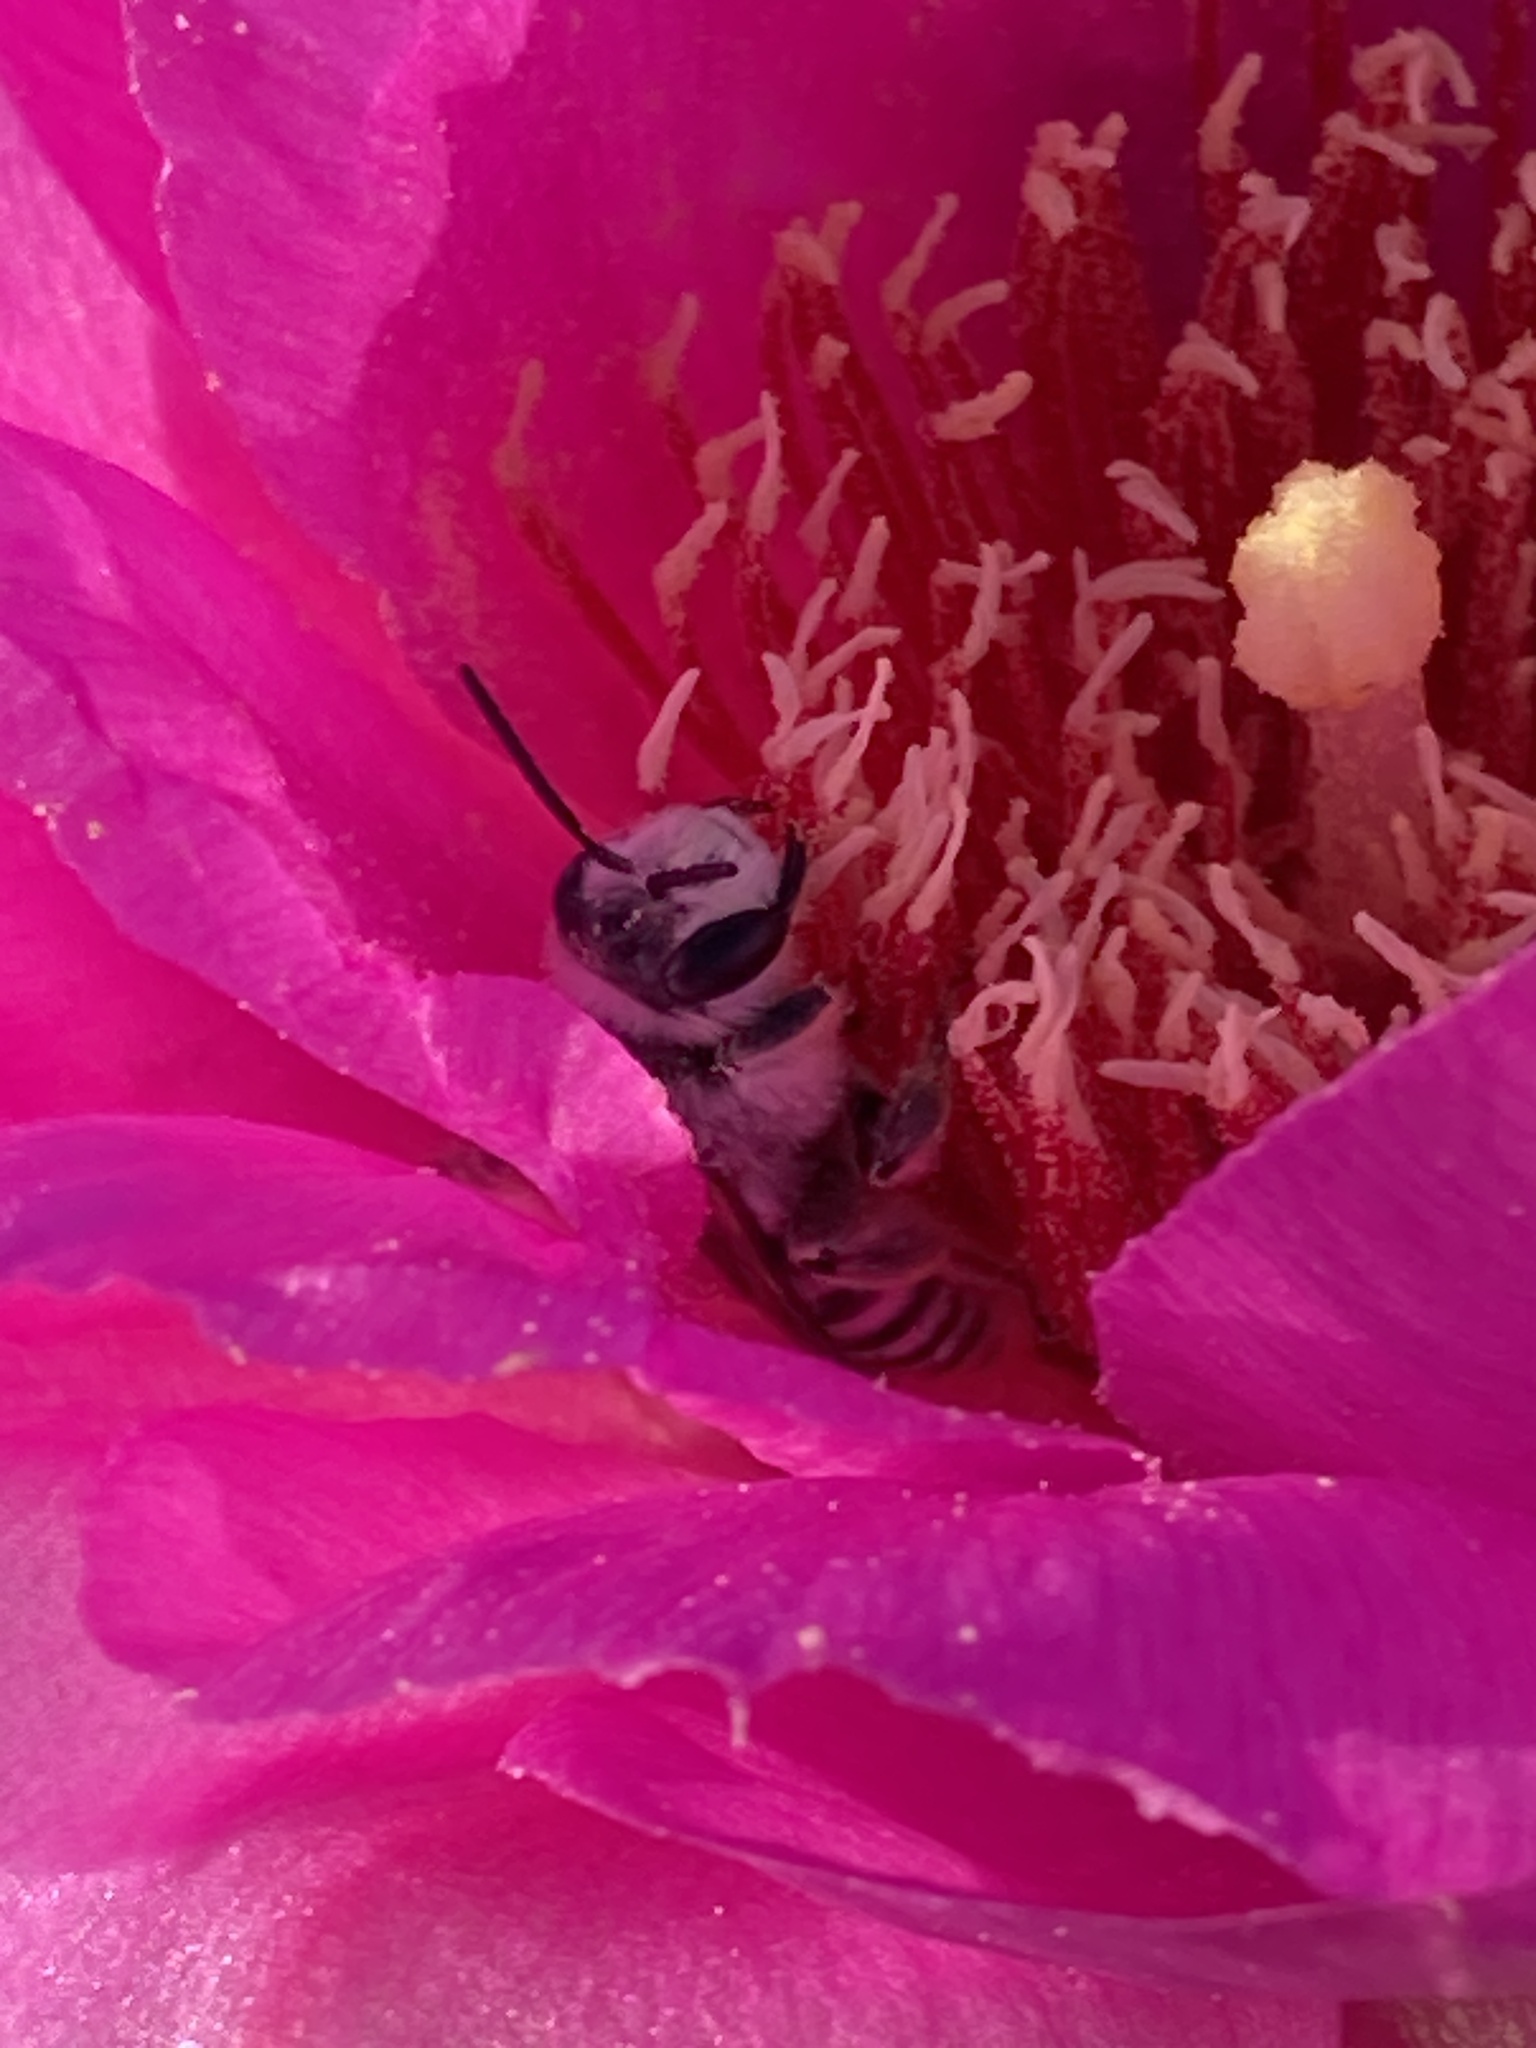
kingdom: Animalia
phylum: Arthropoda
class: Insecta
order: Hymenoptera
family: Andrenidae
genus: Megandrena
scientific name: Megandrena enceliae
